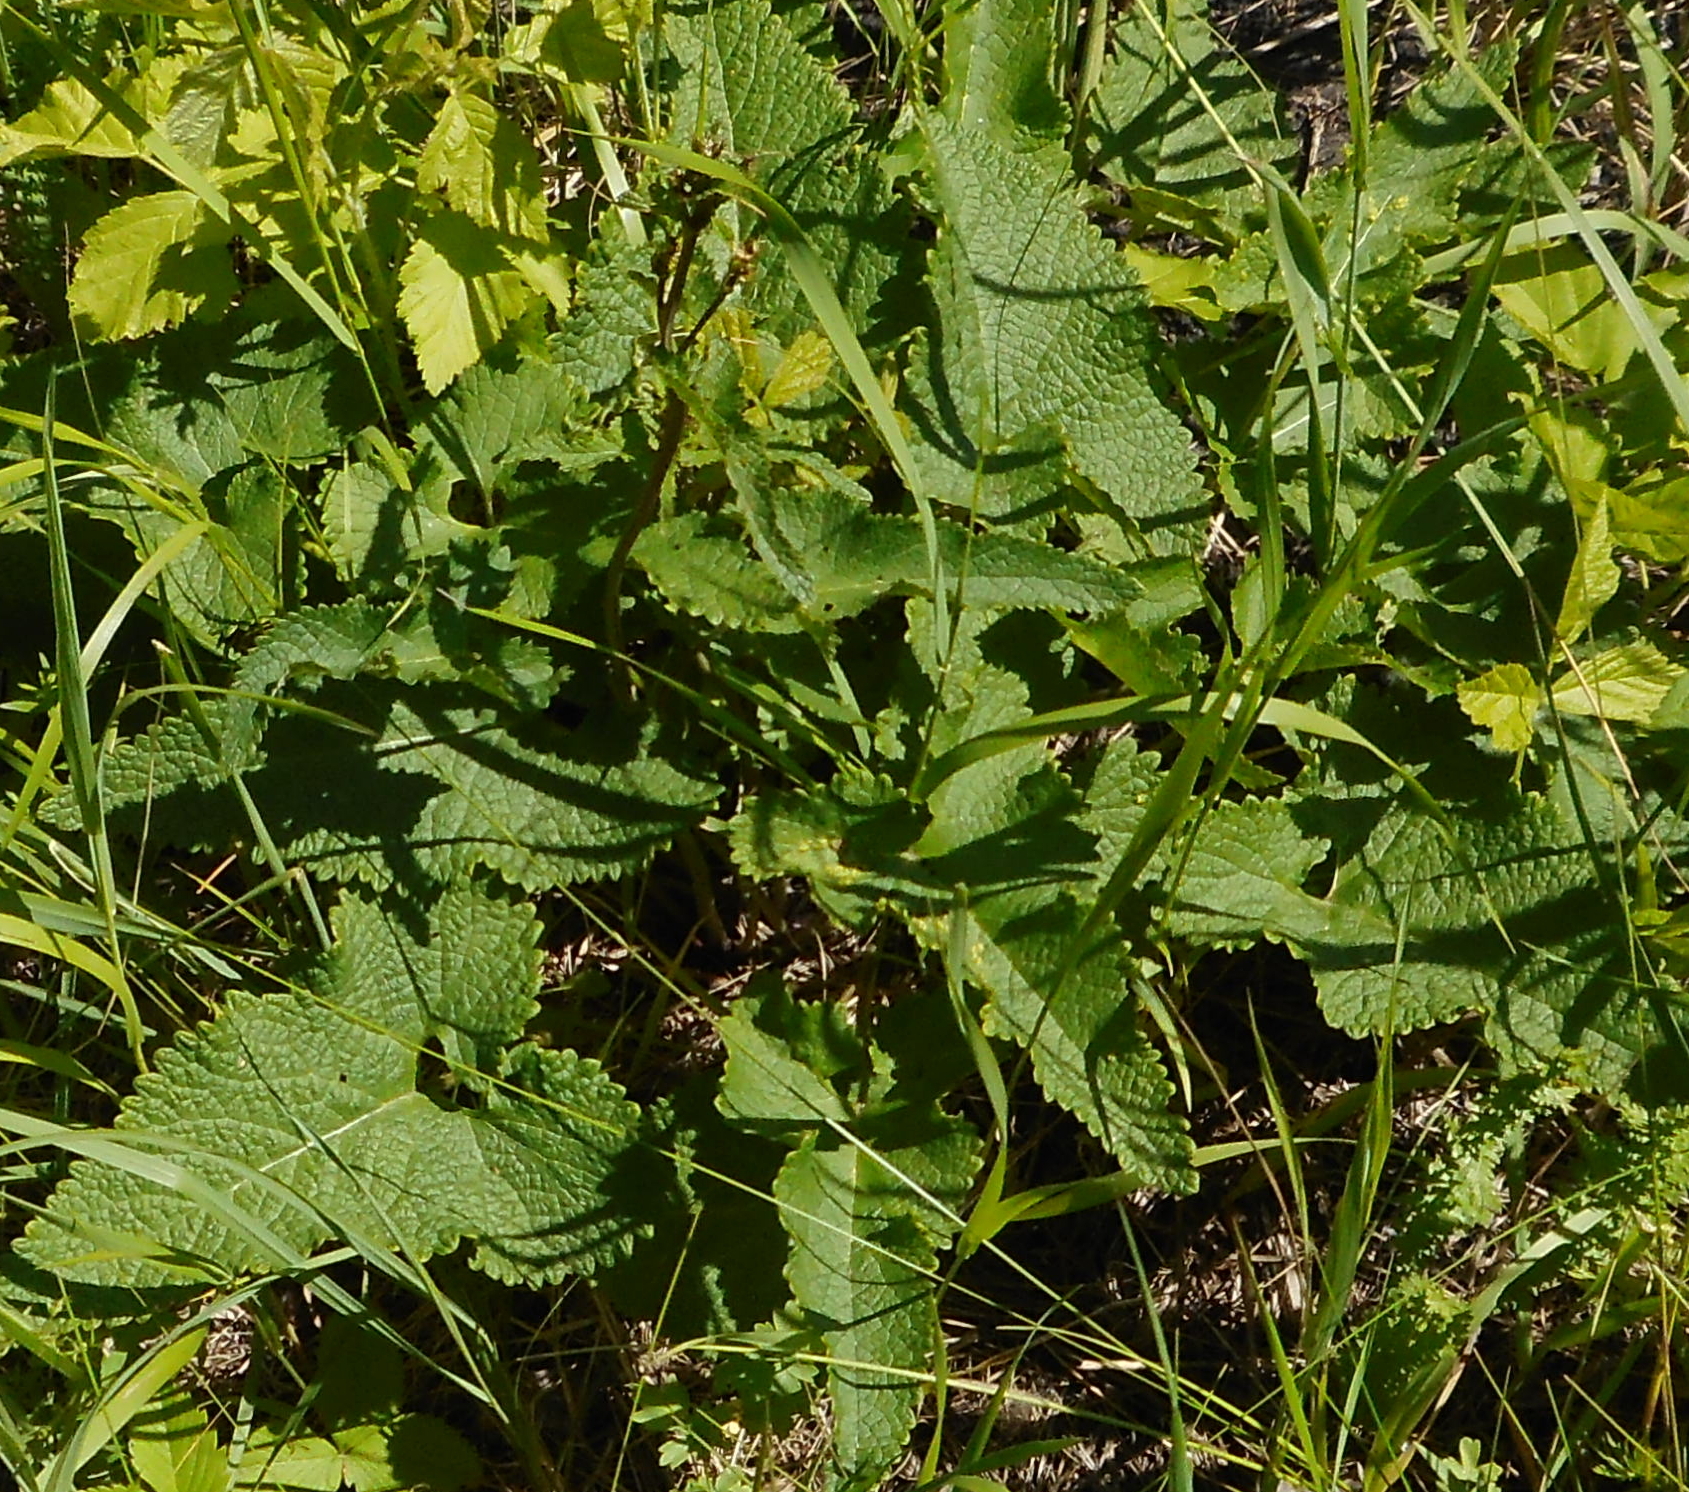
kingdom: Plantae
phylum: Tracheophyta
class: Magnoliopsida
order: Lamiales
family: Lamiaceae
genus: Salvia
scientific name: Salvia pratensis
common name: Meadow sage
